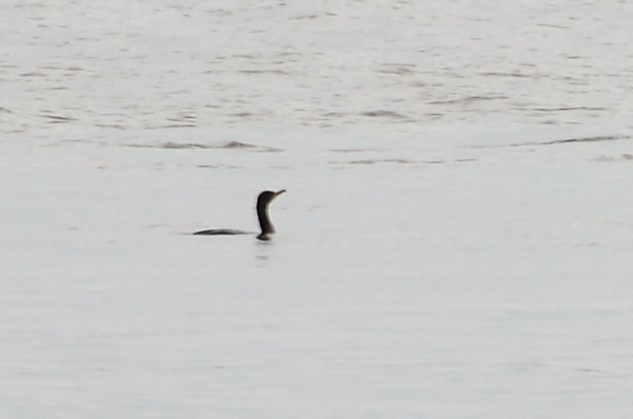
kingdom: Animalia
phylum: Chordata
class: Aves
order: Suliformes
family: Phalacrocoracidae
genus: Phalacrocorax
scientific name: Phalacrocorax auritus
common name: Double-crested cormorant
